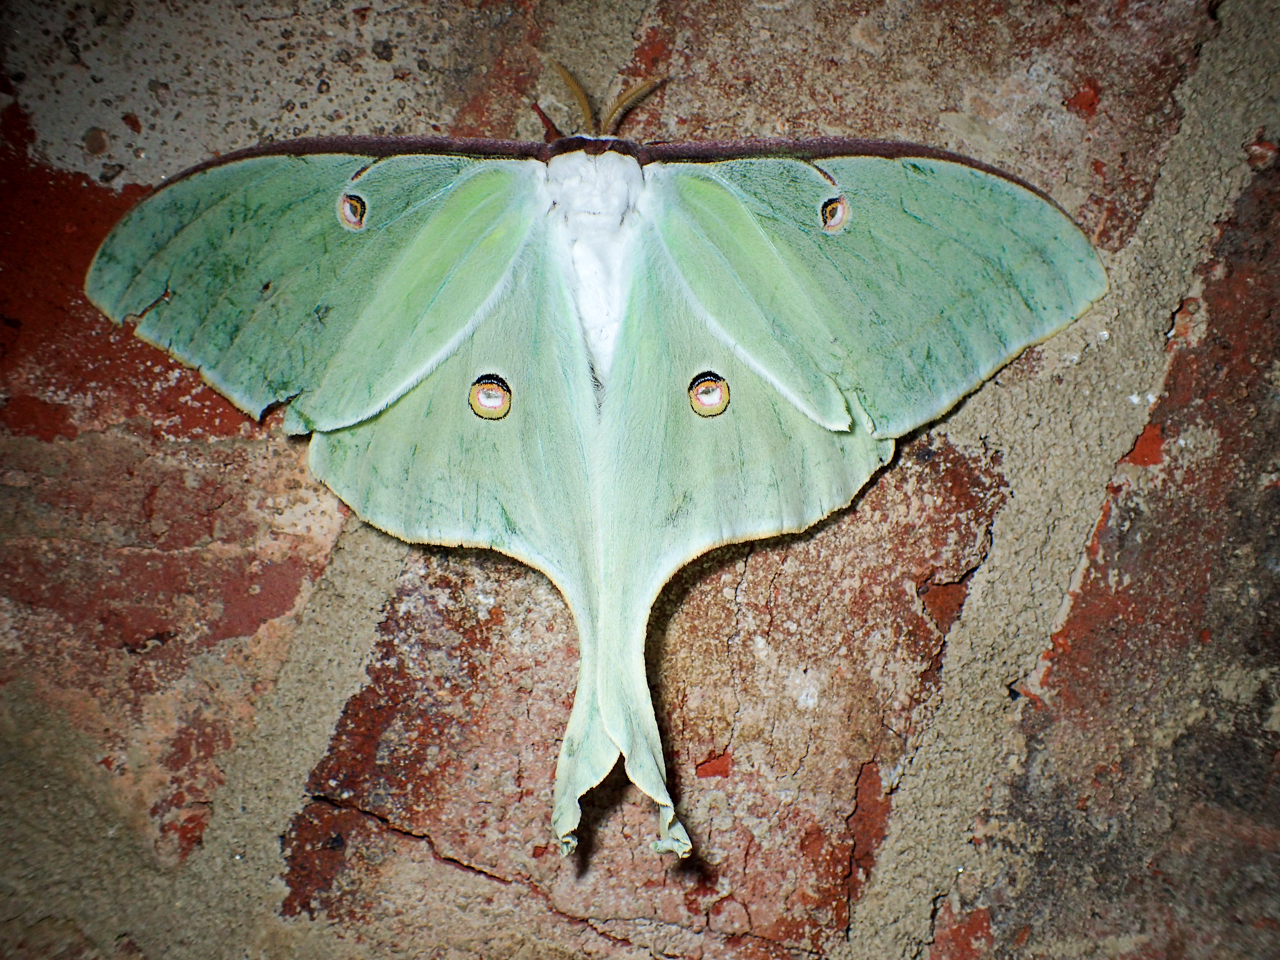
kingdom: Animalia
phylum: Arthropoda
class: Insecta
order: Lepidoptera
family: Saturniidae
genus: Actias
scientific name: Actias luna
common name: Luna moth
